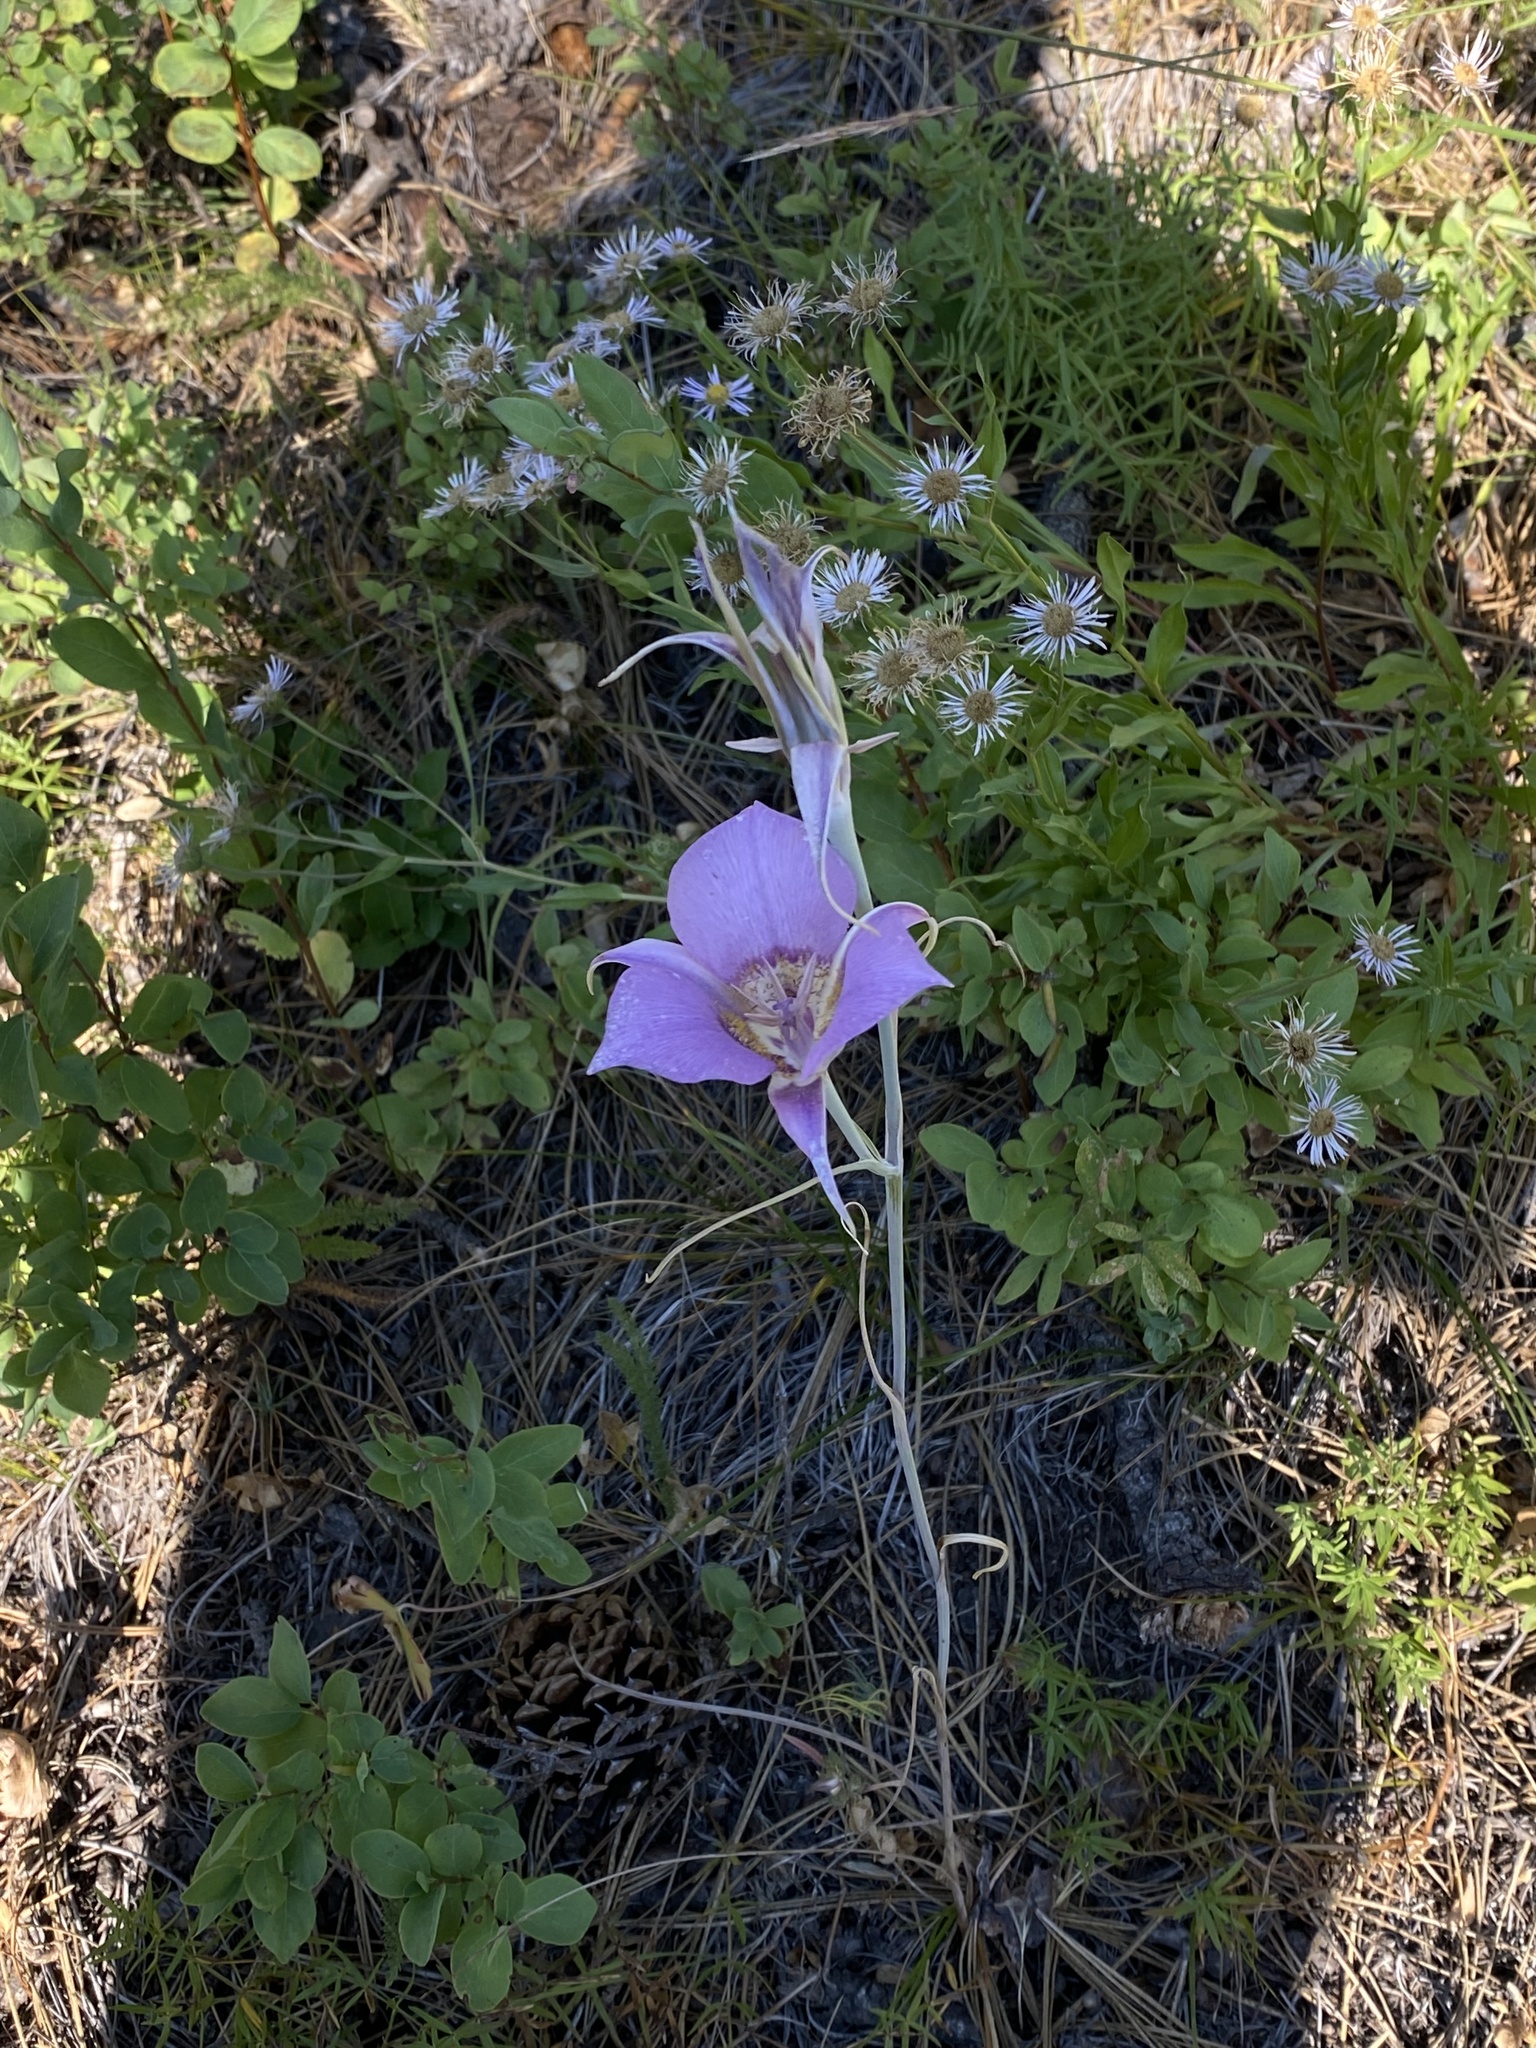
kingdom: Plantae
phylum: Tracheophyta
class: Liliopsida
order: Liliales
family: Liliaceae
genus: Calochortus
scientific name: Calochortus macrocarpus
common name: Green-band mariposa lily
